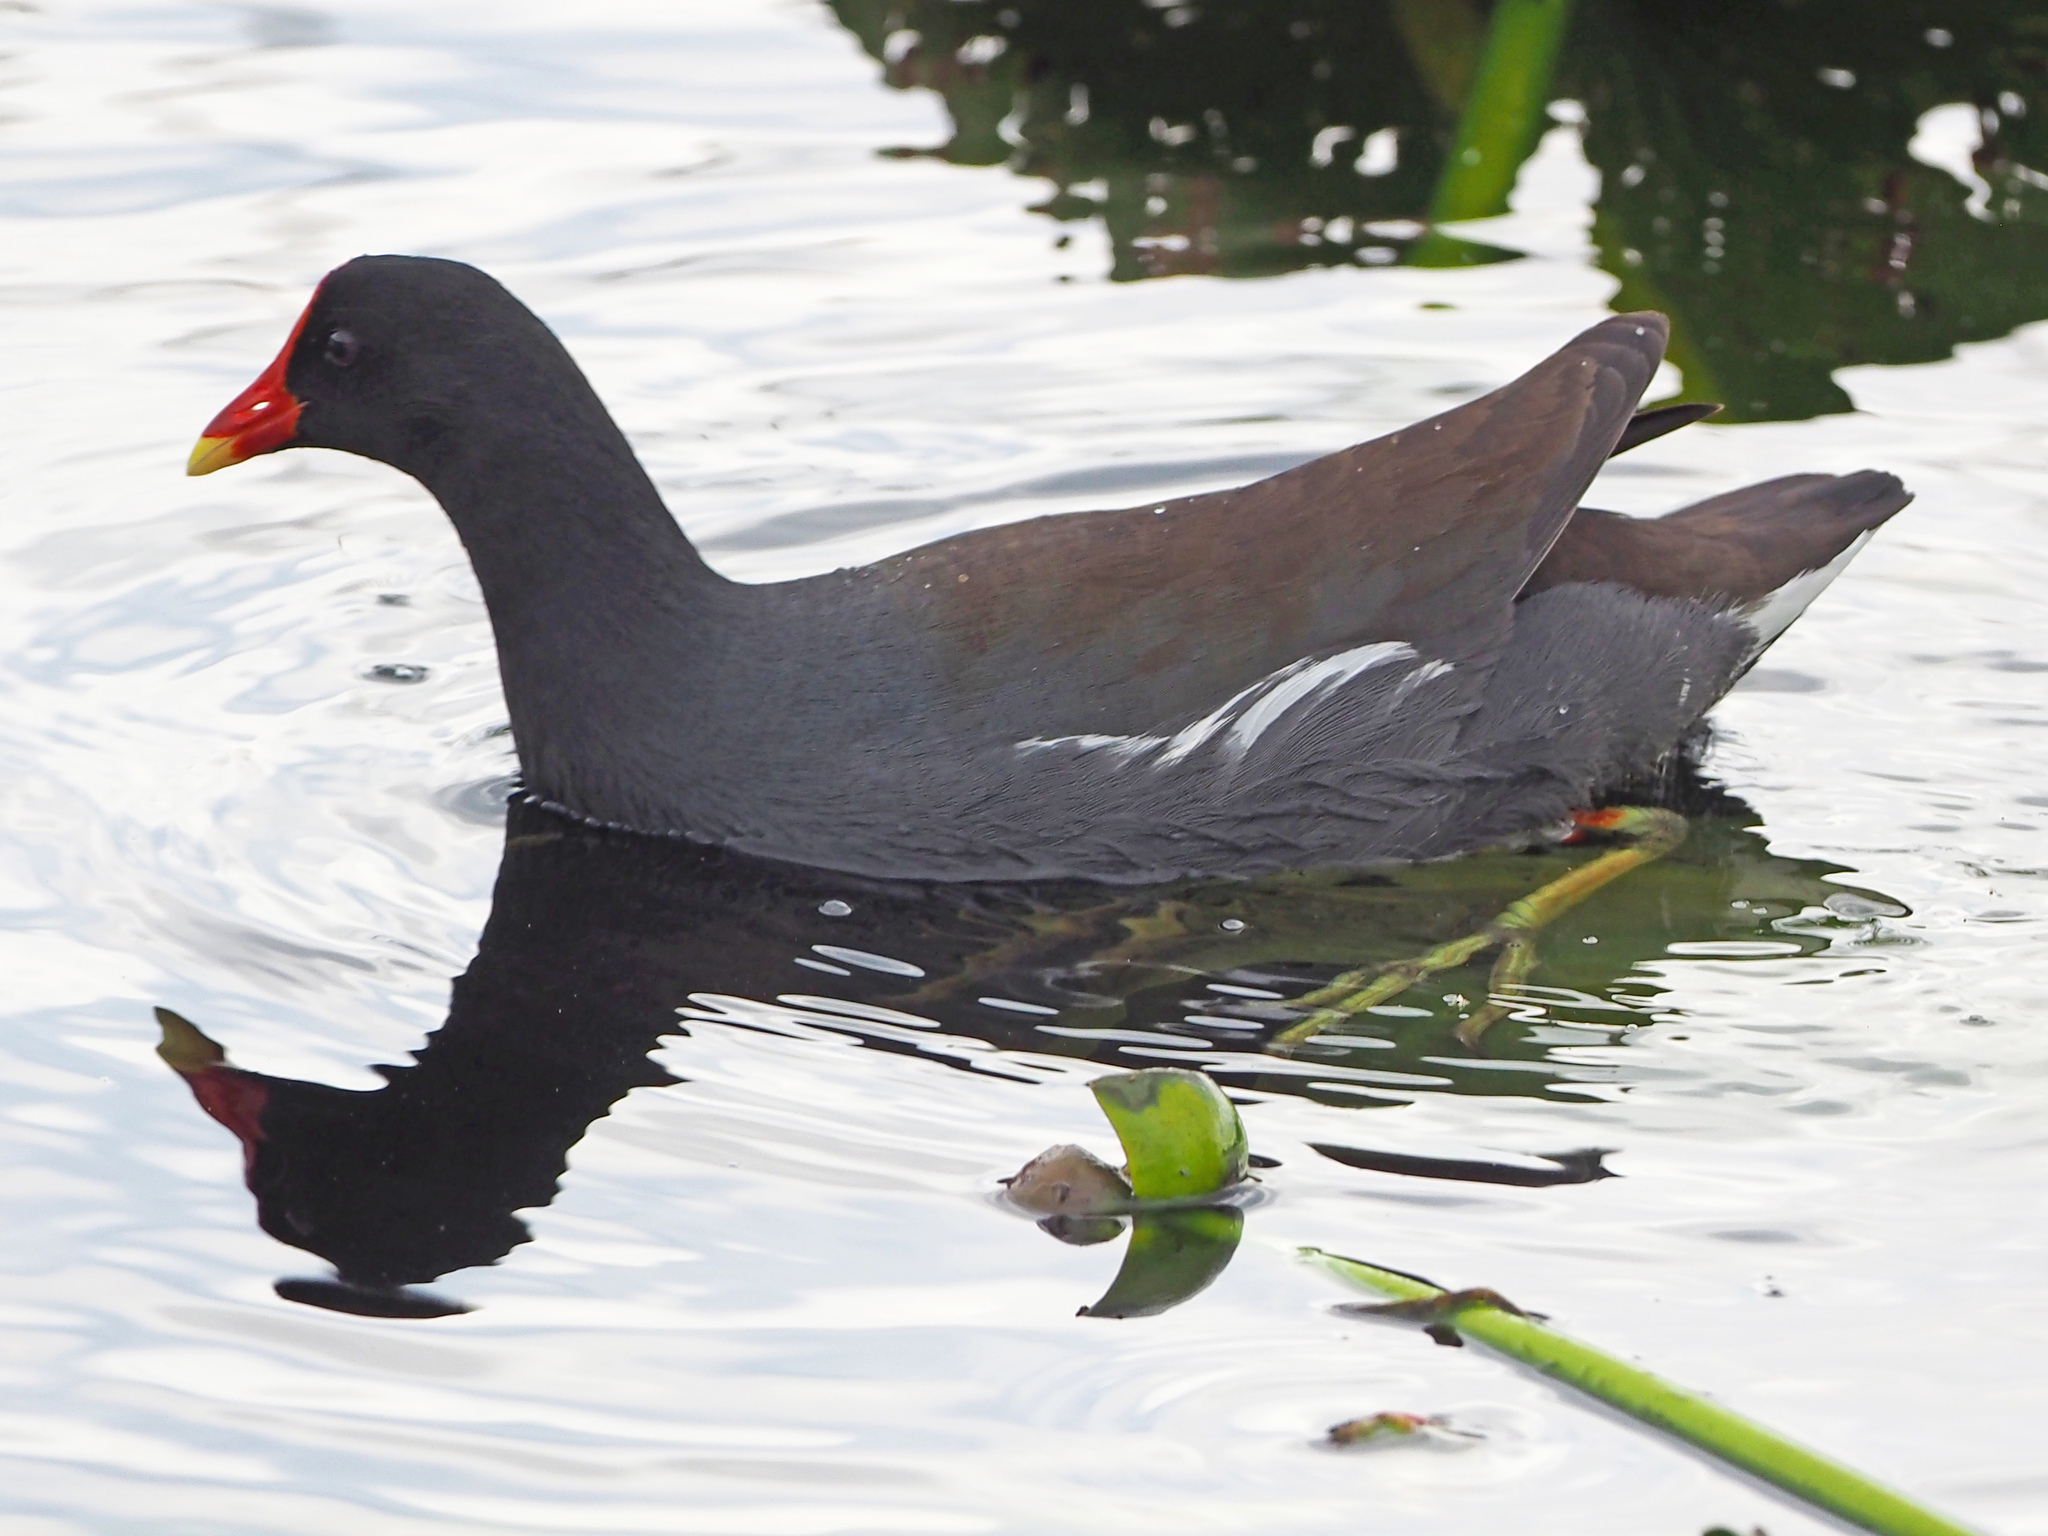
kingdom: Animalia
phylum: Chordata
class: Aves
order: Gruiformes
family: Rallidae
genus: Gallinula
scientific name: Gallinula chloropus
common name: Common moorhen
